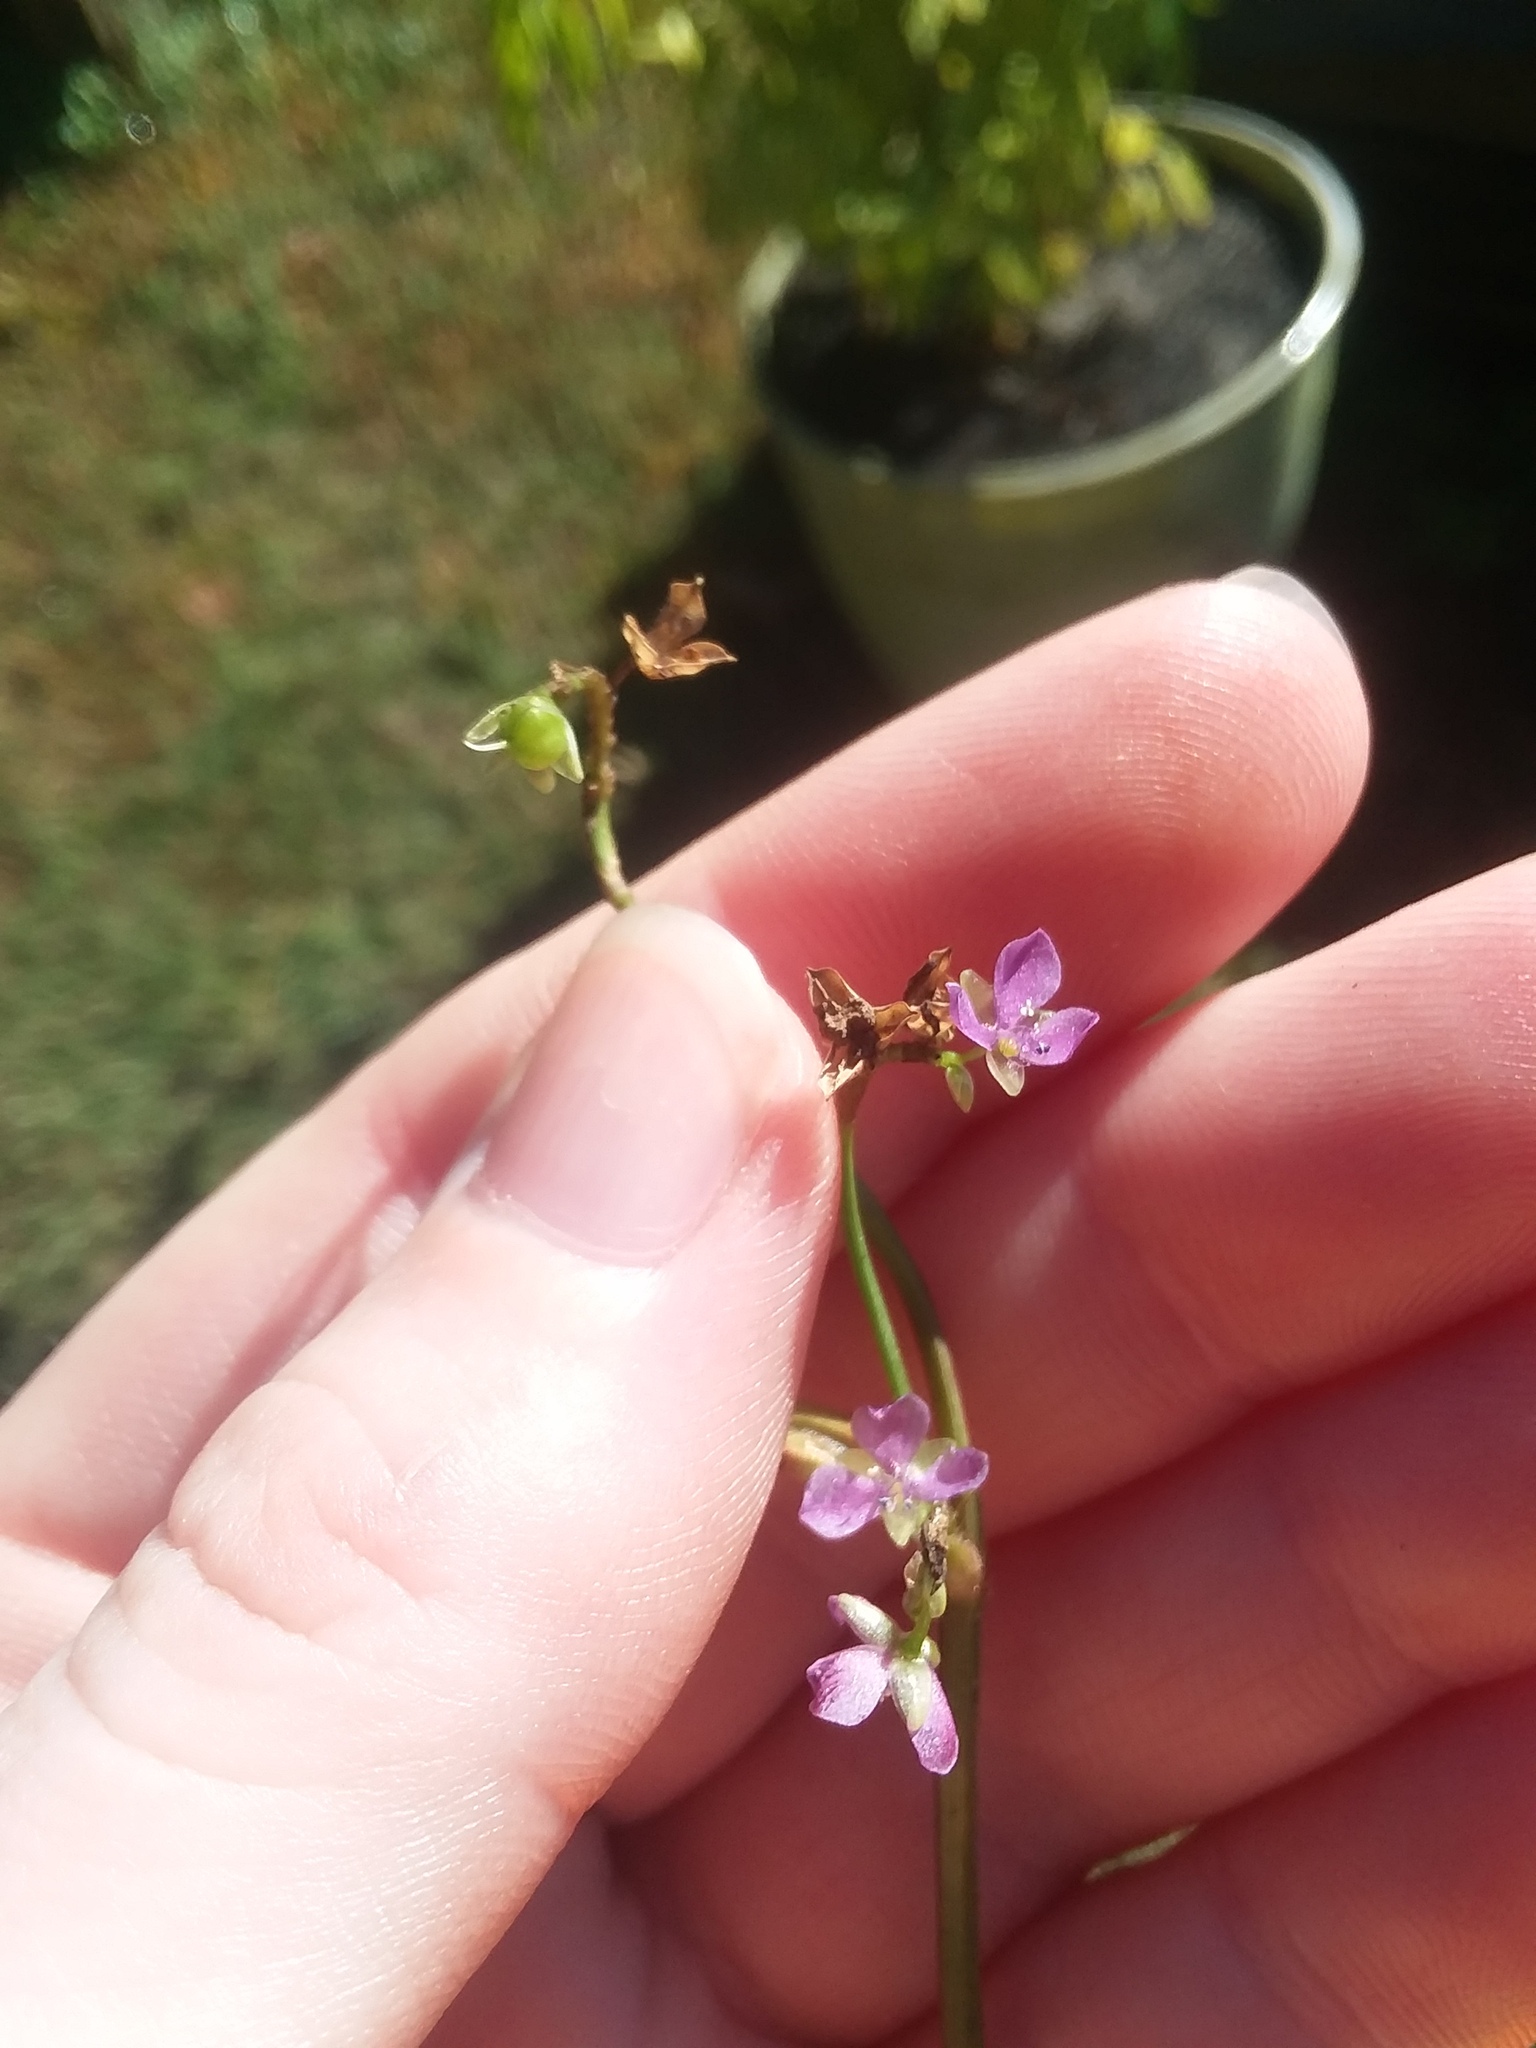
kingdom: Plantae
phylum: Tracheophyta
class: Liliopsida
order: Commelinales
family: Commelinaceae
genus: Murdannia
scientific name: Murdannia nudiflora
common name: Nakedstem dewflower
